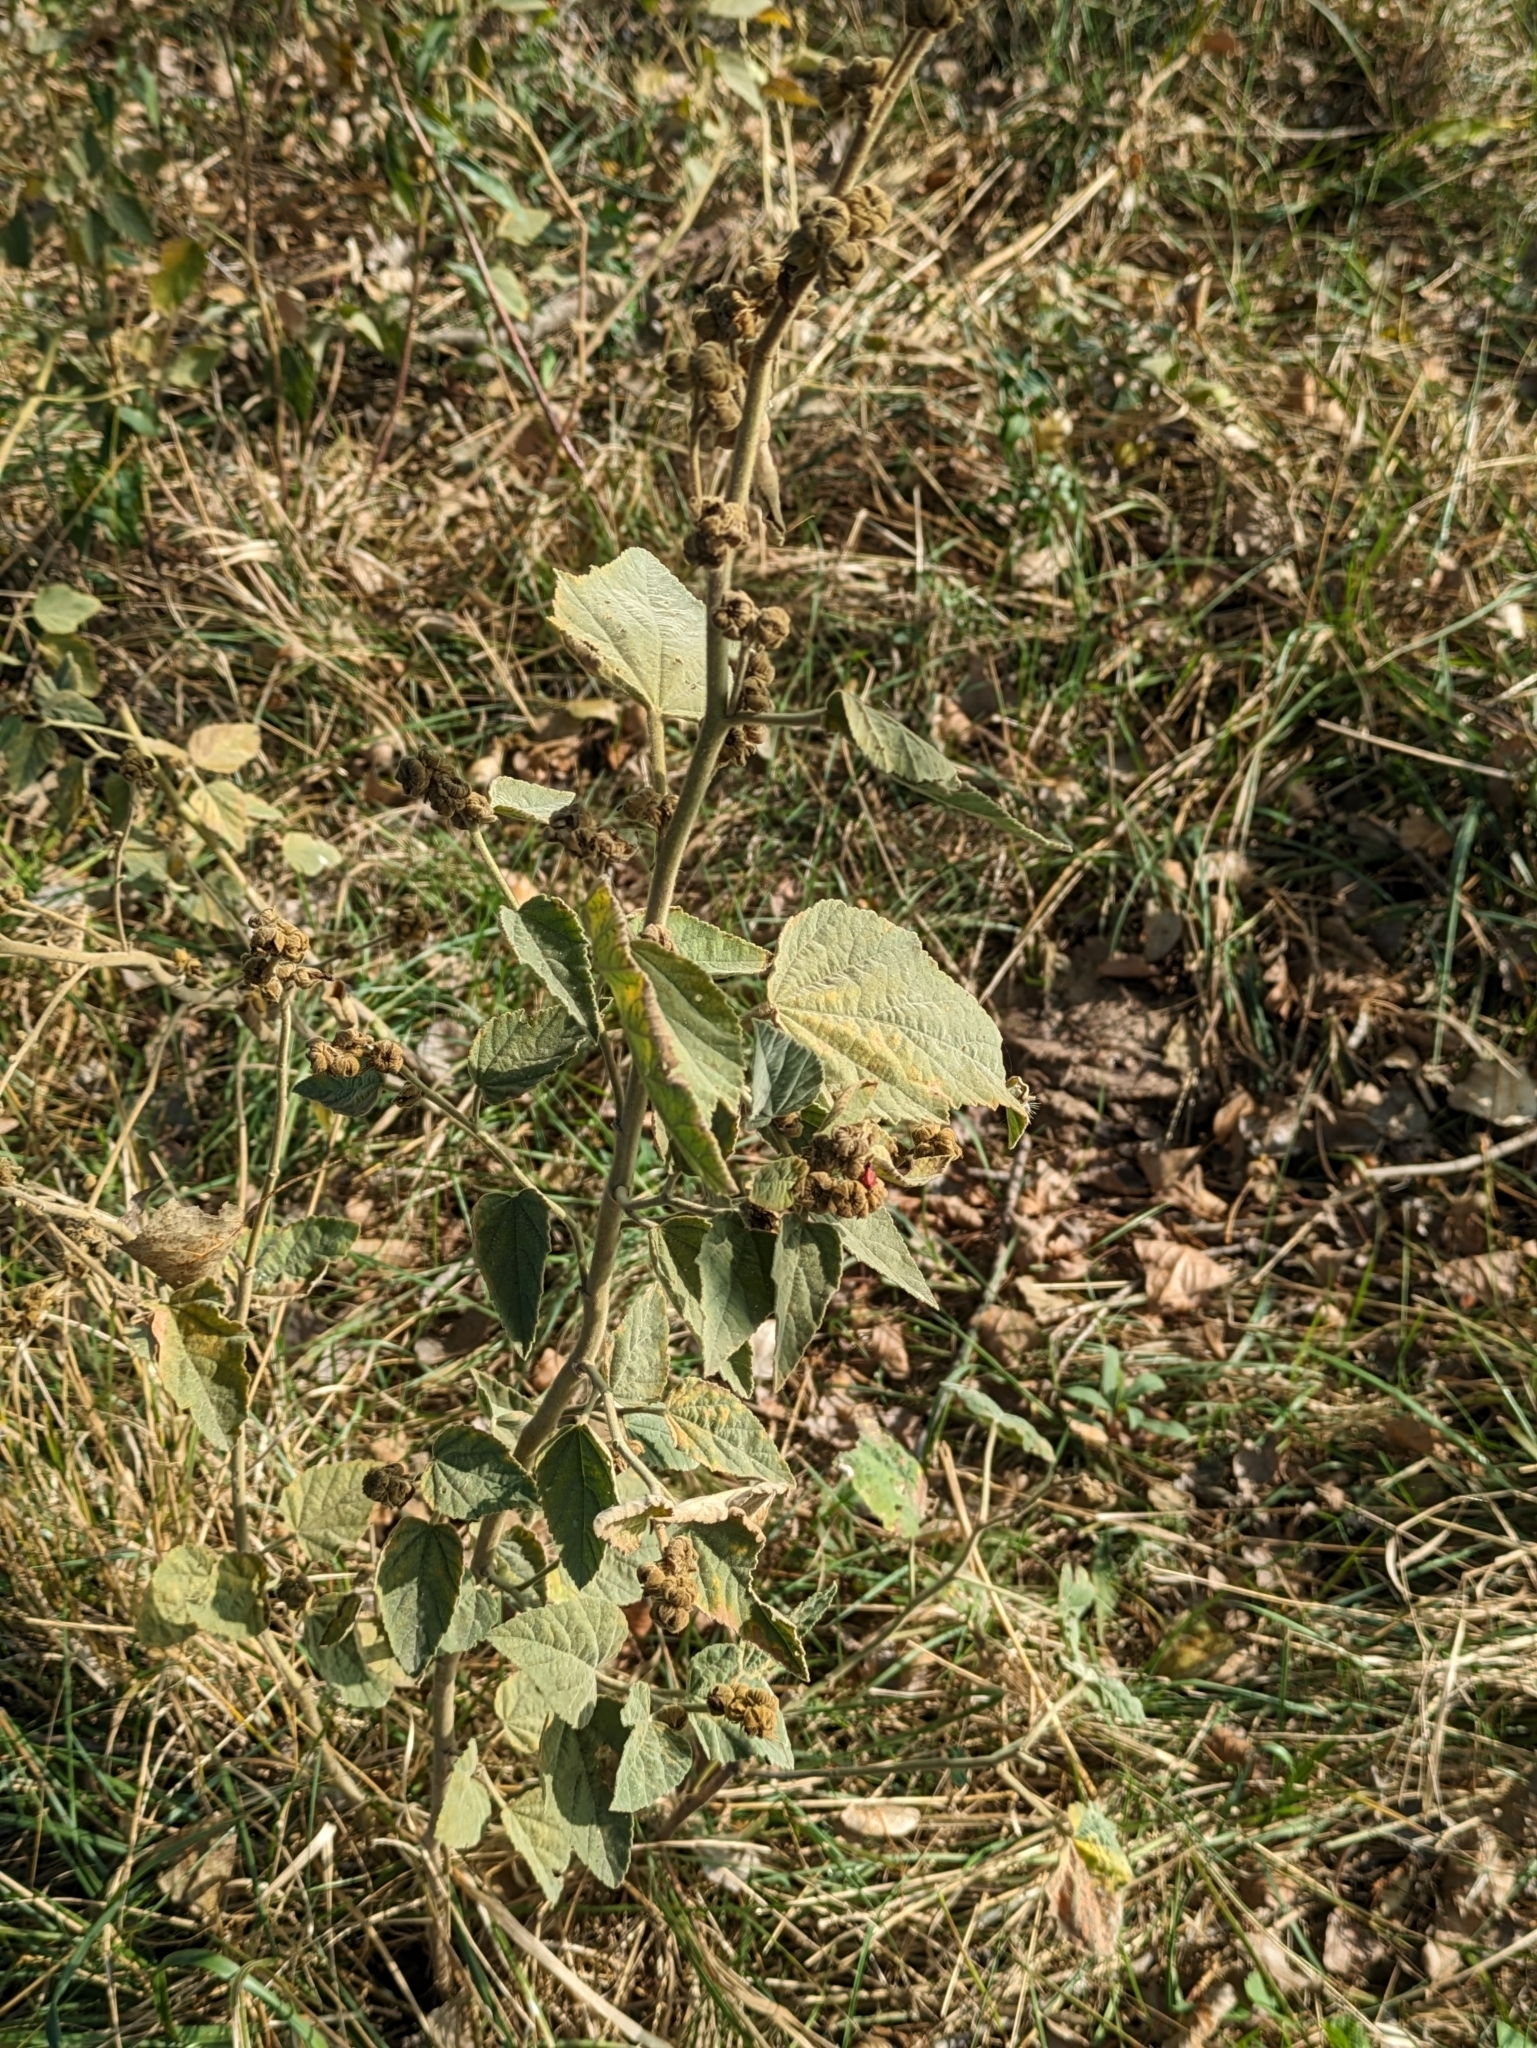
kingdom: Plantae
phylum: Tracheophyta
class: Magnoliopsida
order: Malvales
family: Malvaceae
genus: Althaea
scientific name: Althaea officinalis
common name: Marsh-mallow
